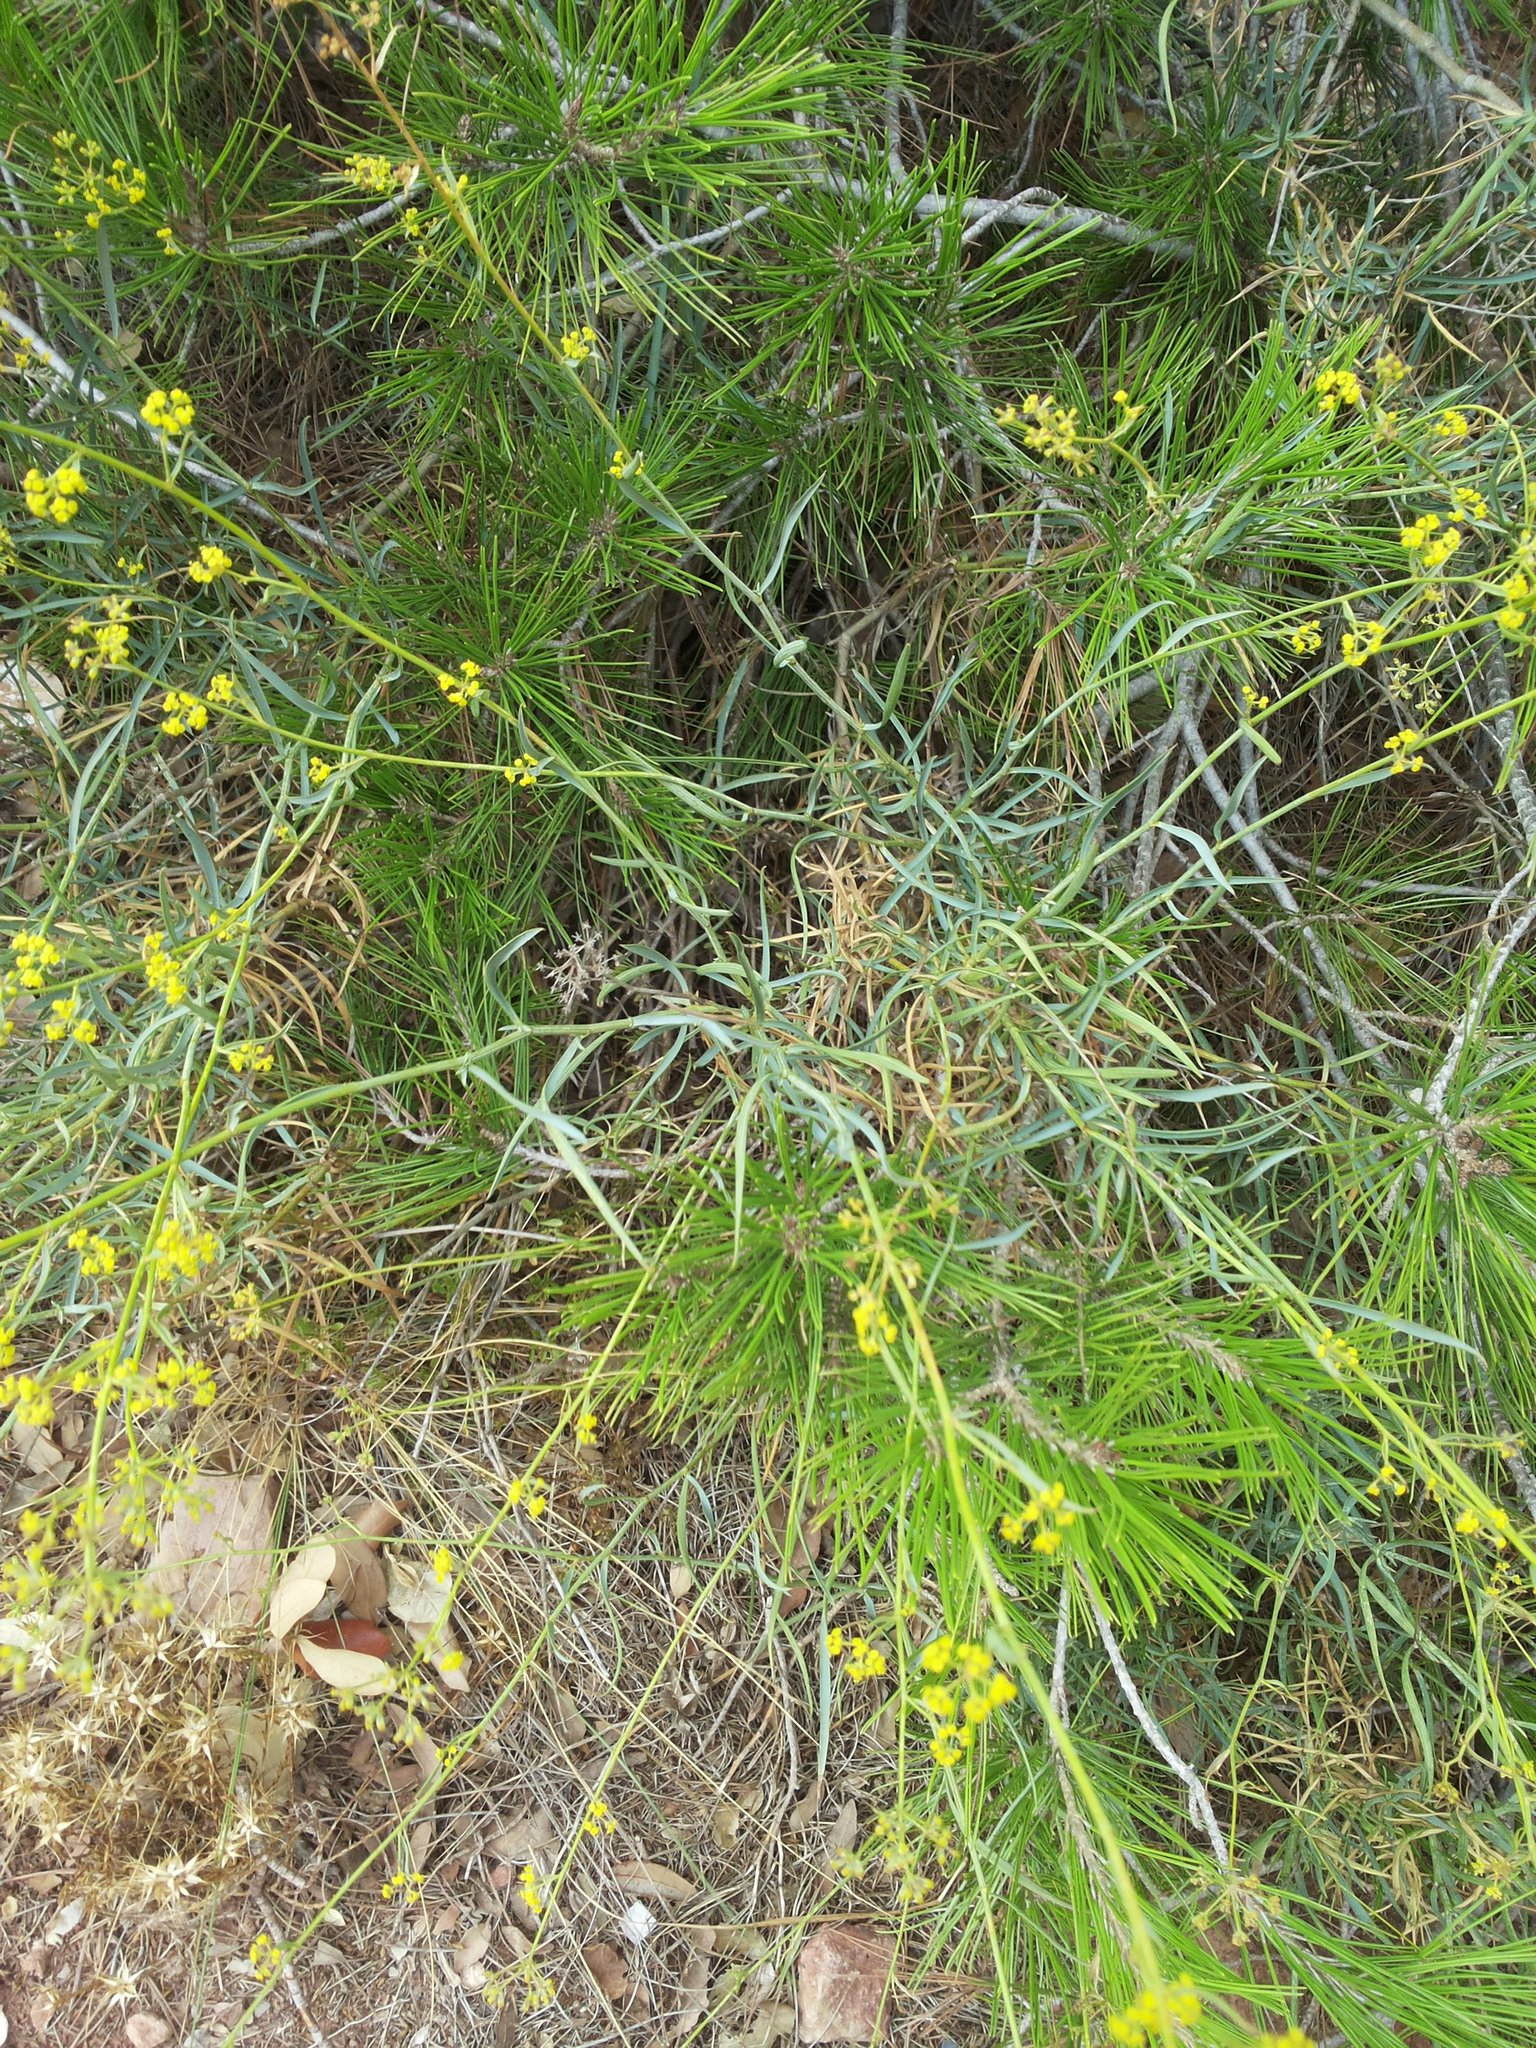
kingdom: Plantae
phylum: Tracheophyta
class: Magnoliopsida
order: Apiales
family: Apiaceae
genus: Foeniculum
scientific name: Foeniculum vulgare
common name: Fennel
